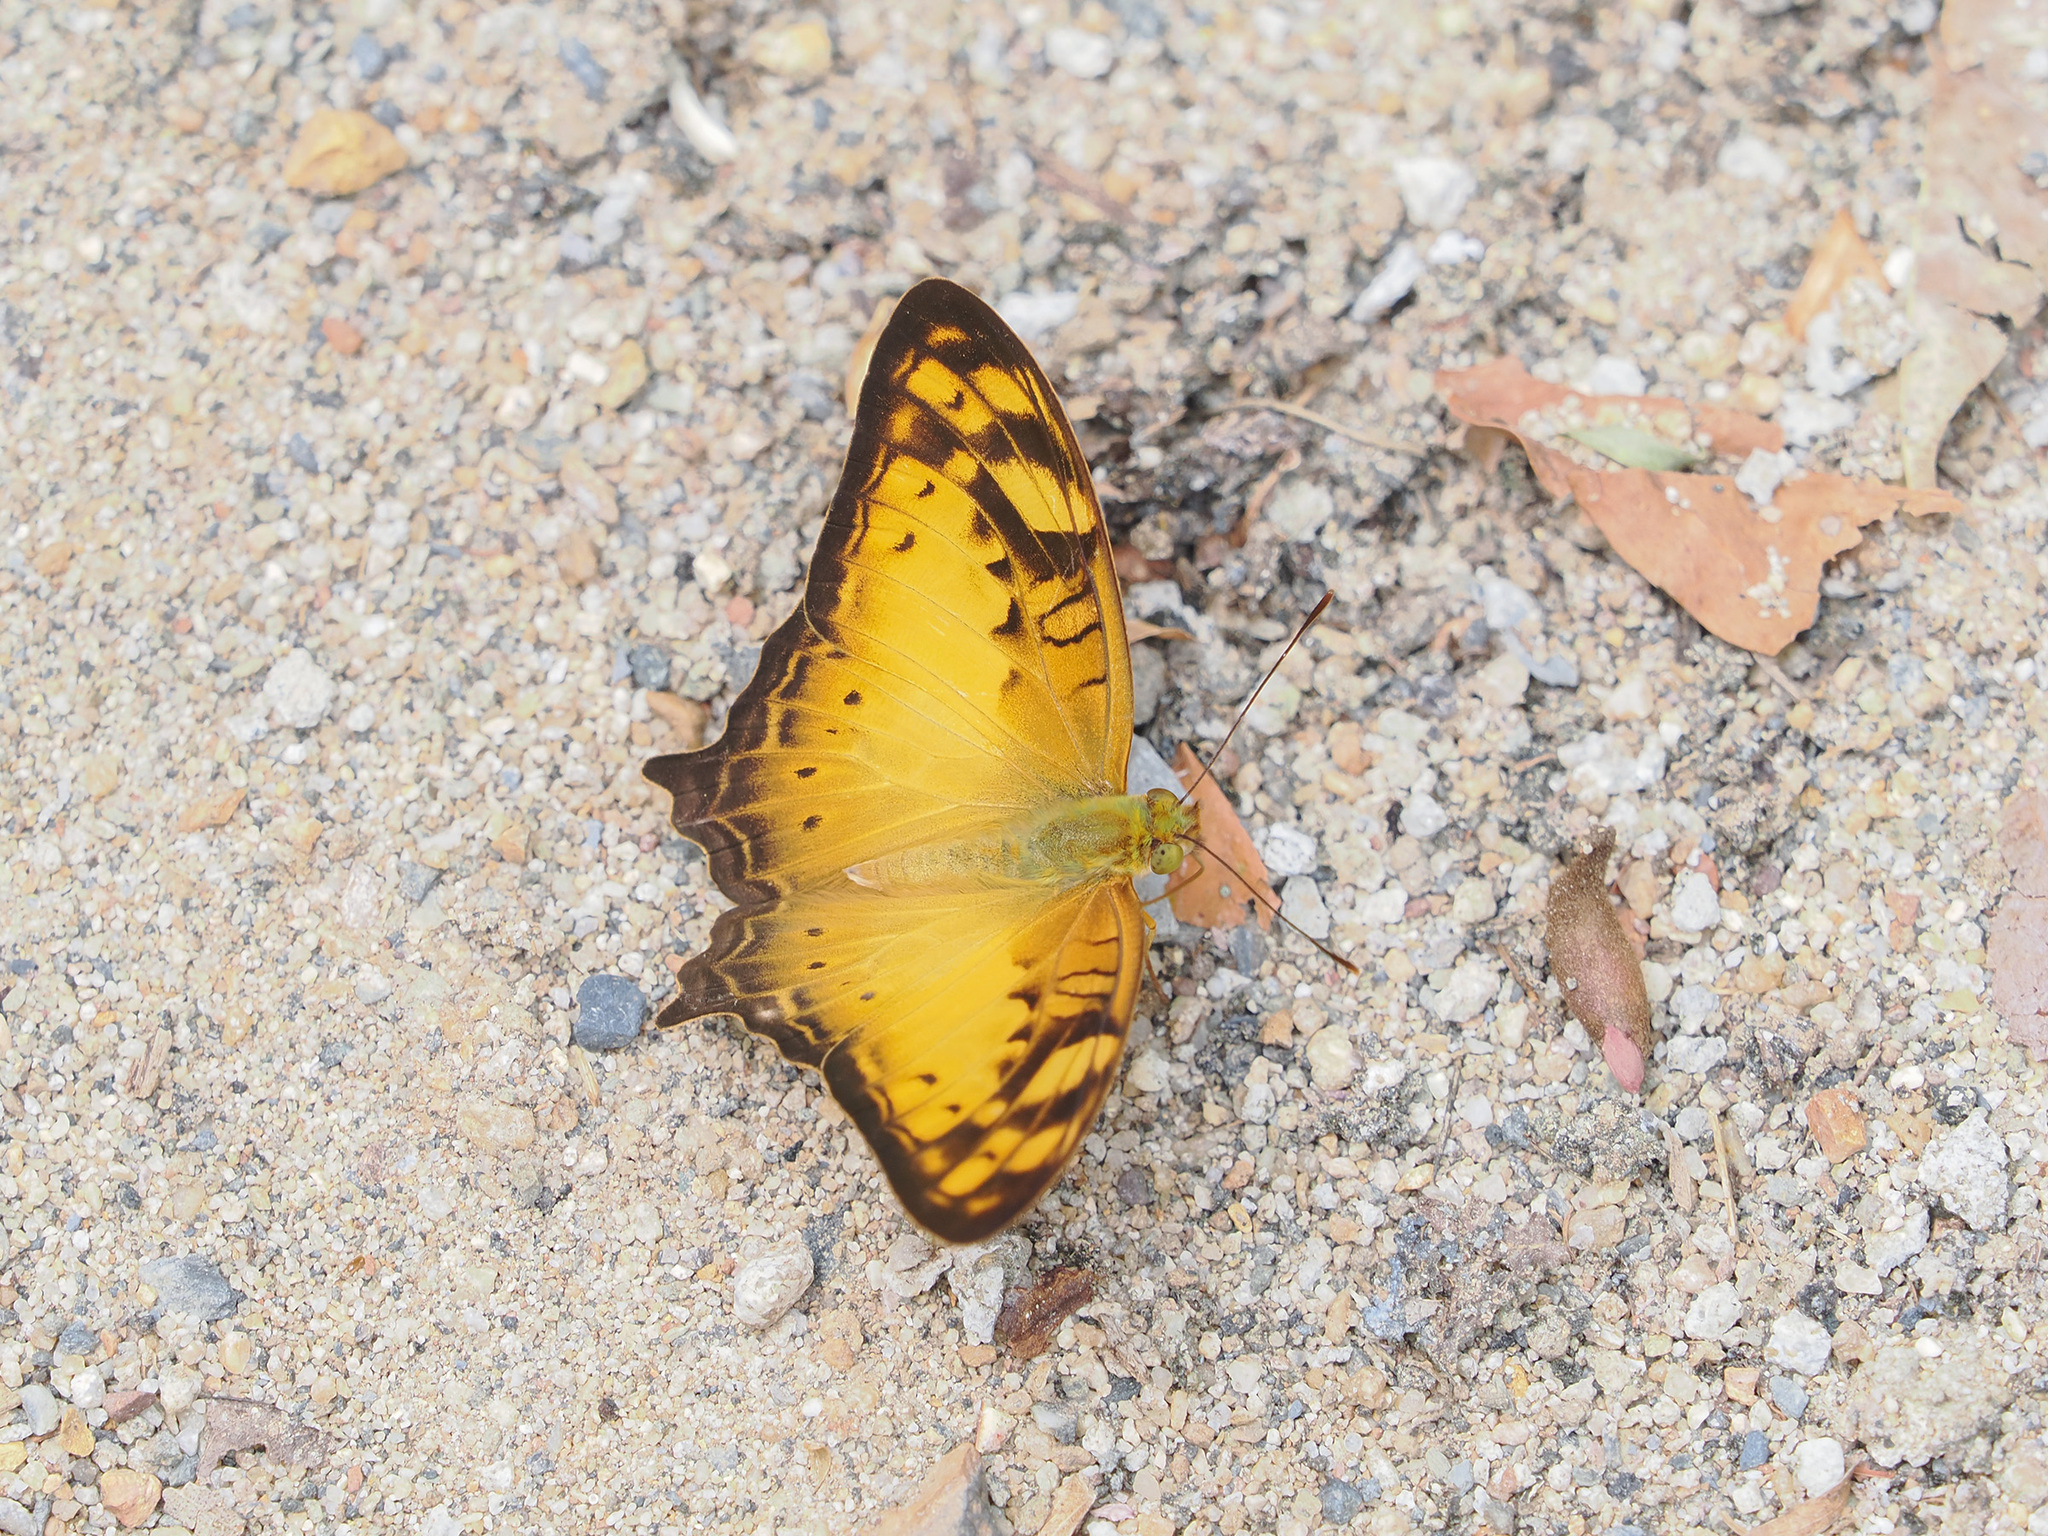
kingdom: Animalia
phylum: Arthropoda
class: Insecta
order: Lepidoptera
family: Nymphalidae
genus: Vagrans
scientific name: Vagrans sinha
